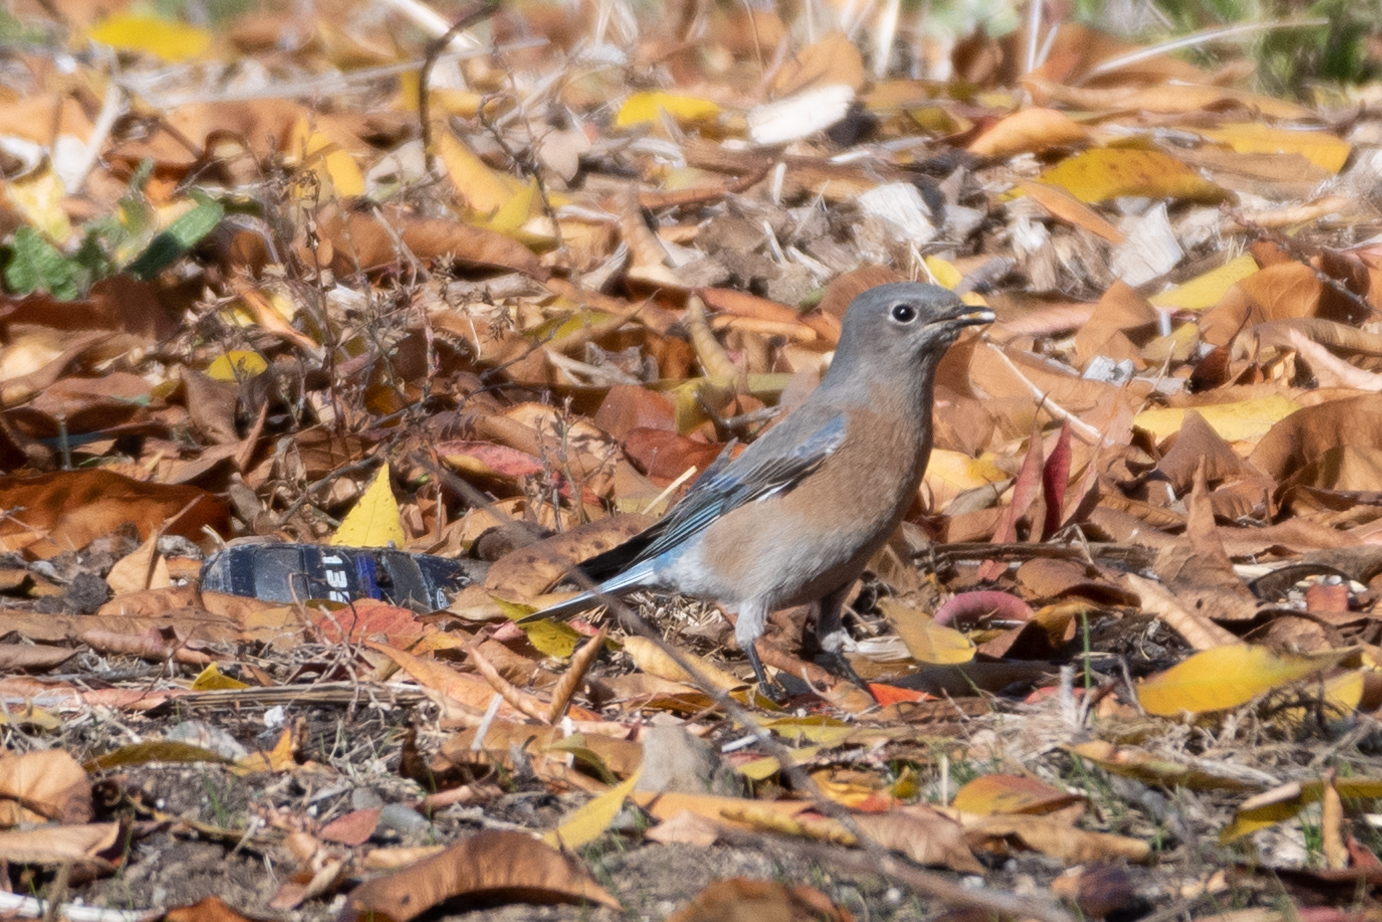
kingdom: Animalia
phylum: Chordata
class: Aves
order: Passeriformes
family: Turdidae
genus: Sialia
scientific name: Sialia mexicana
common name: Western bluebird
